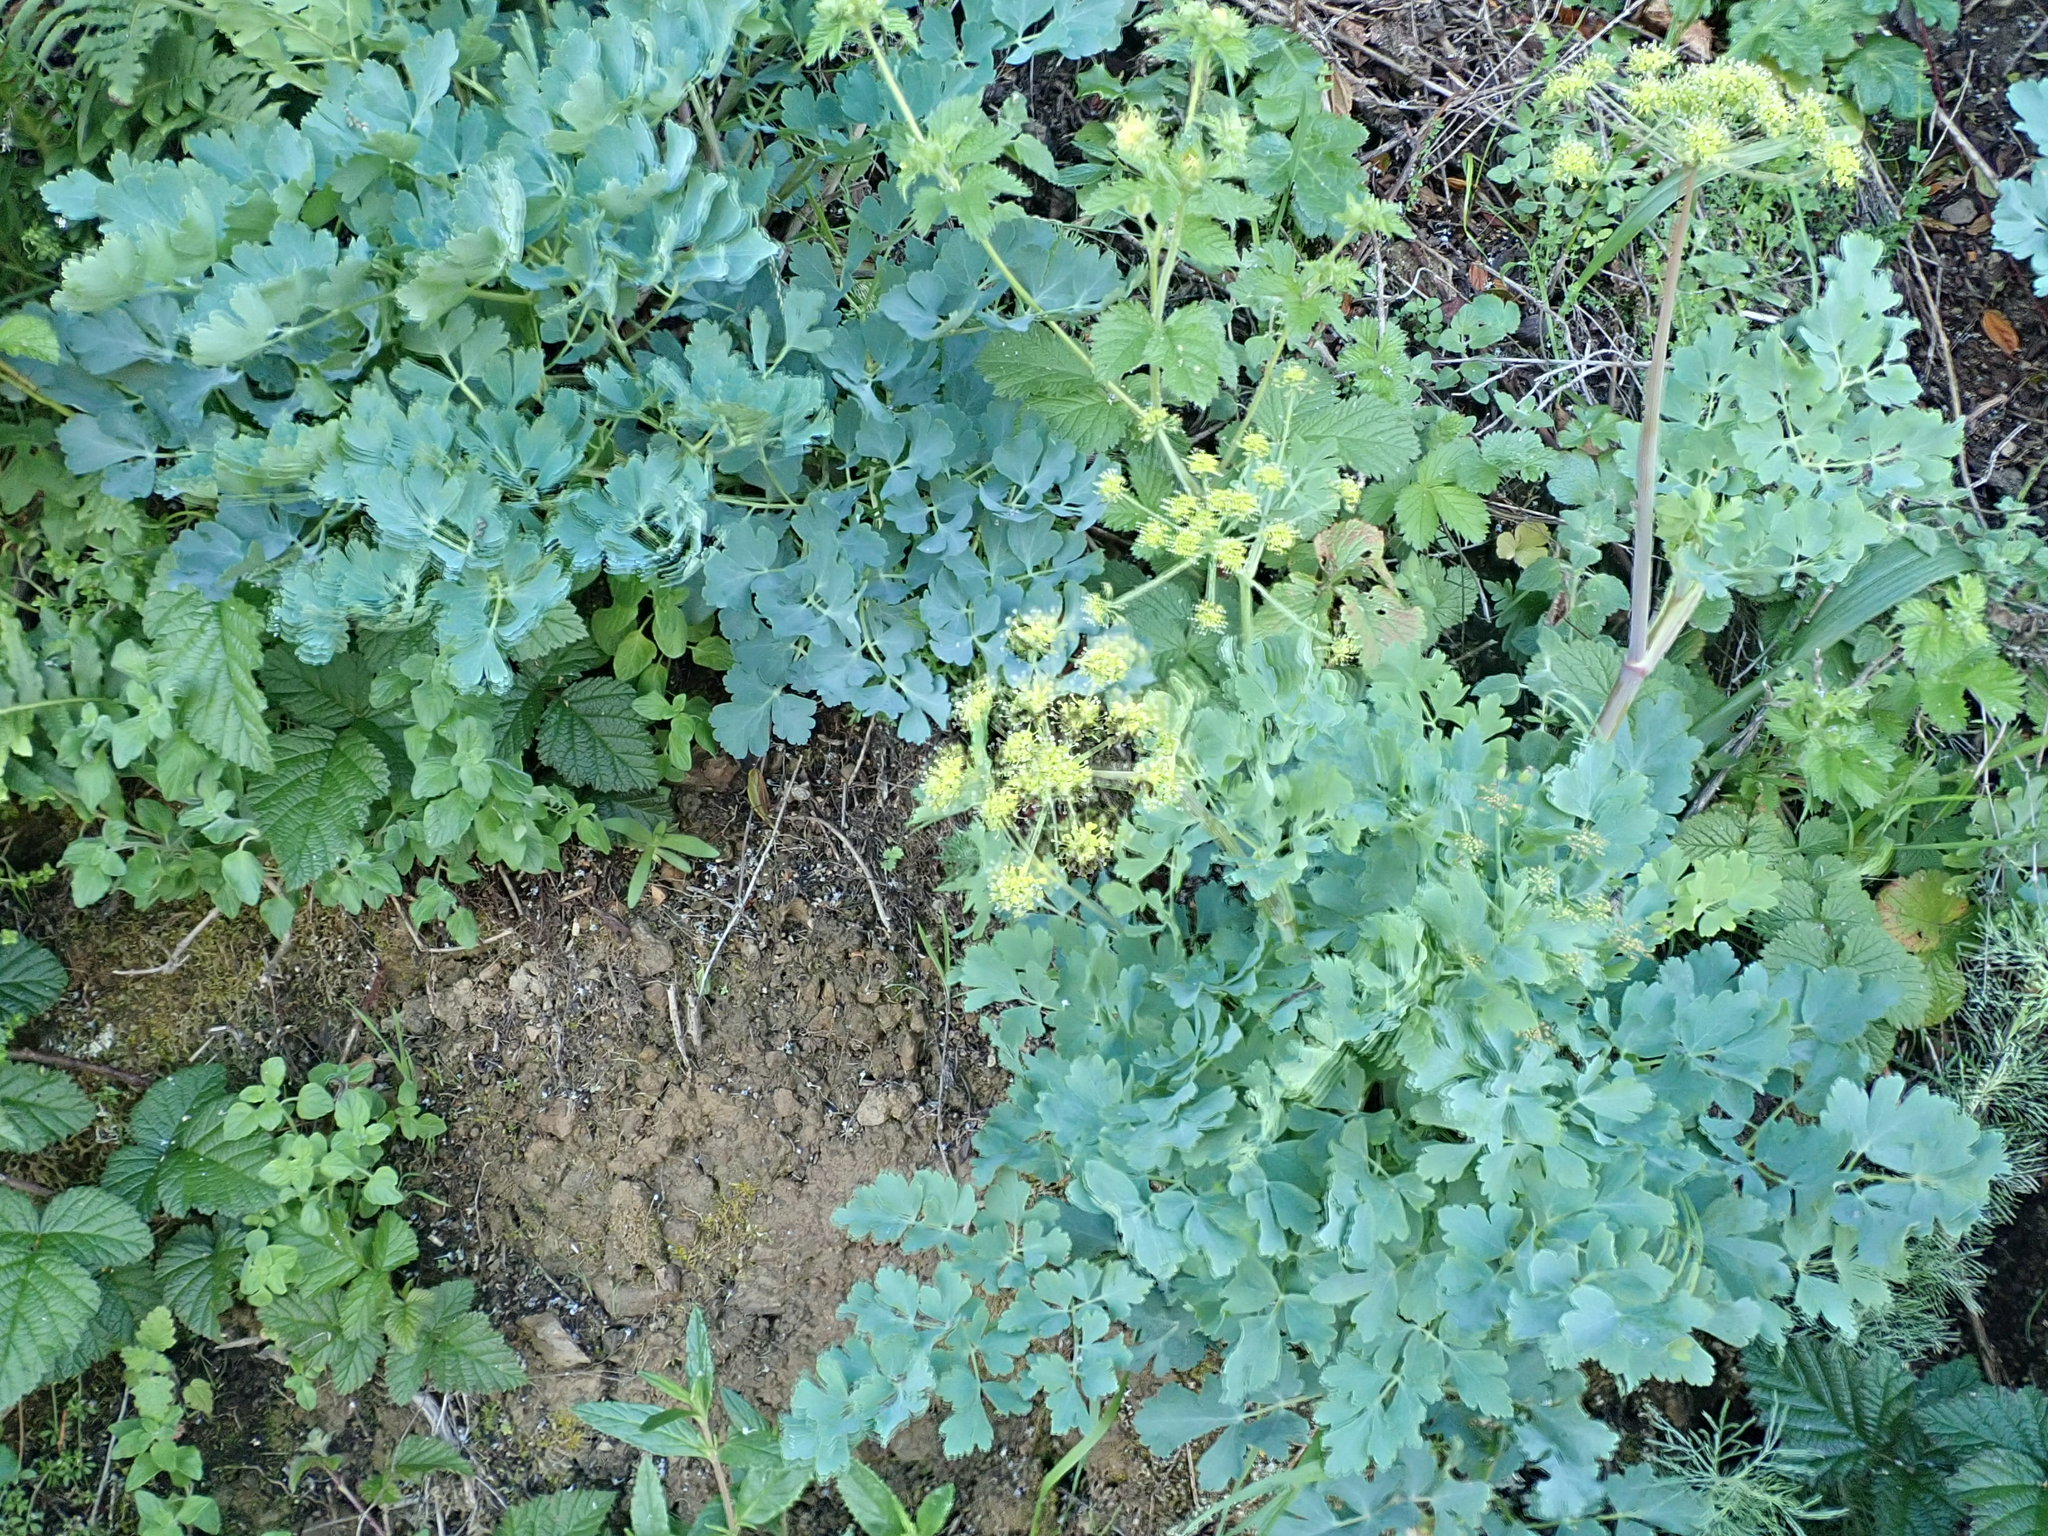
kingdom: Plantae
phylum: Tracheophyta
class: Magnoliopsida
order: Apiales
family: Apiaceae
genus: Lomatium
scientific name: Lomatium californicum
